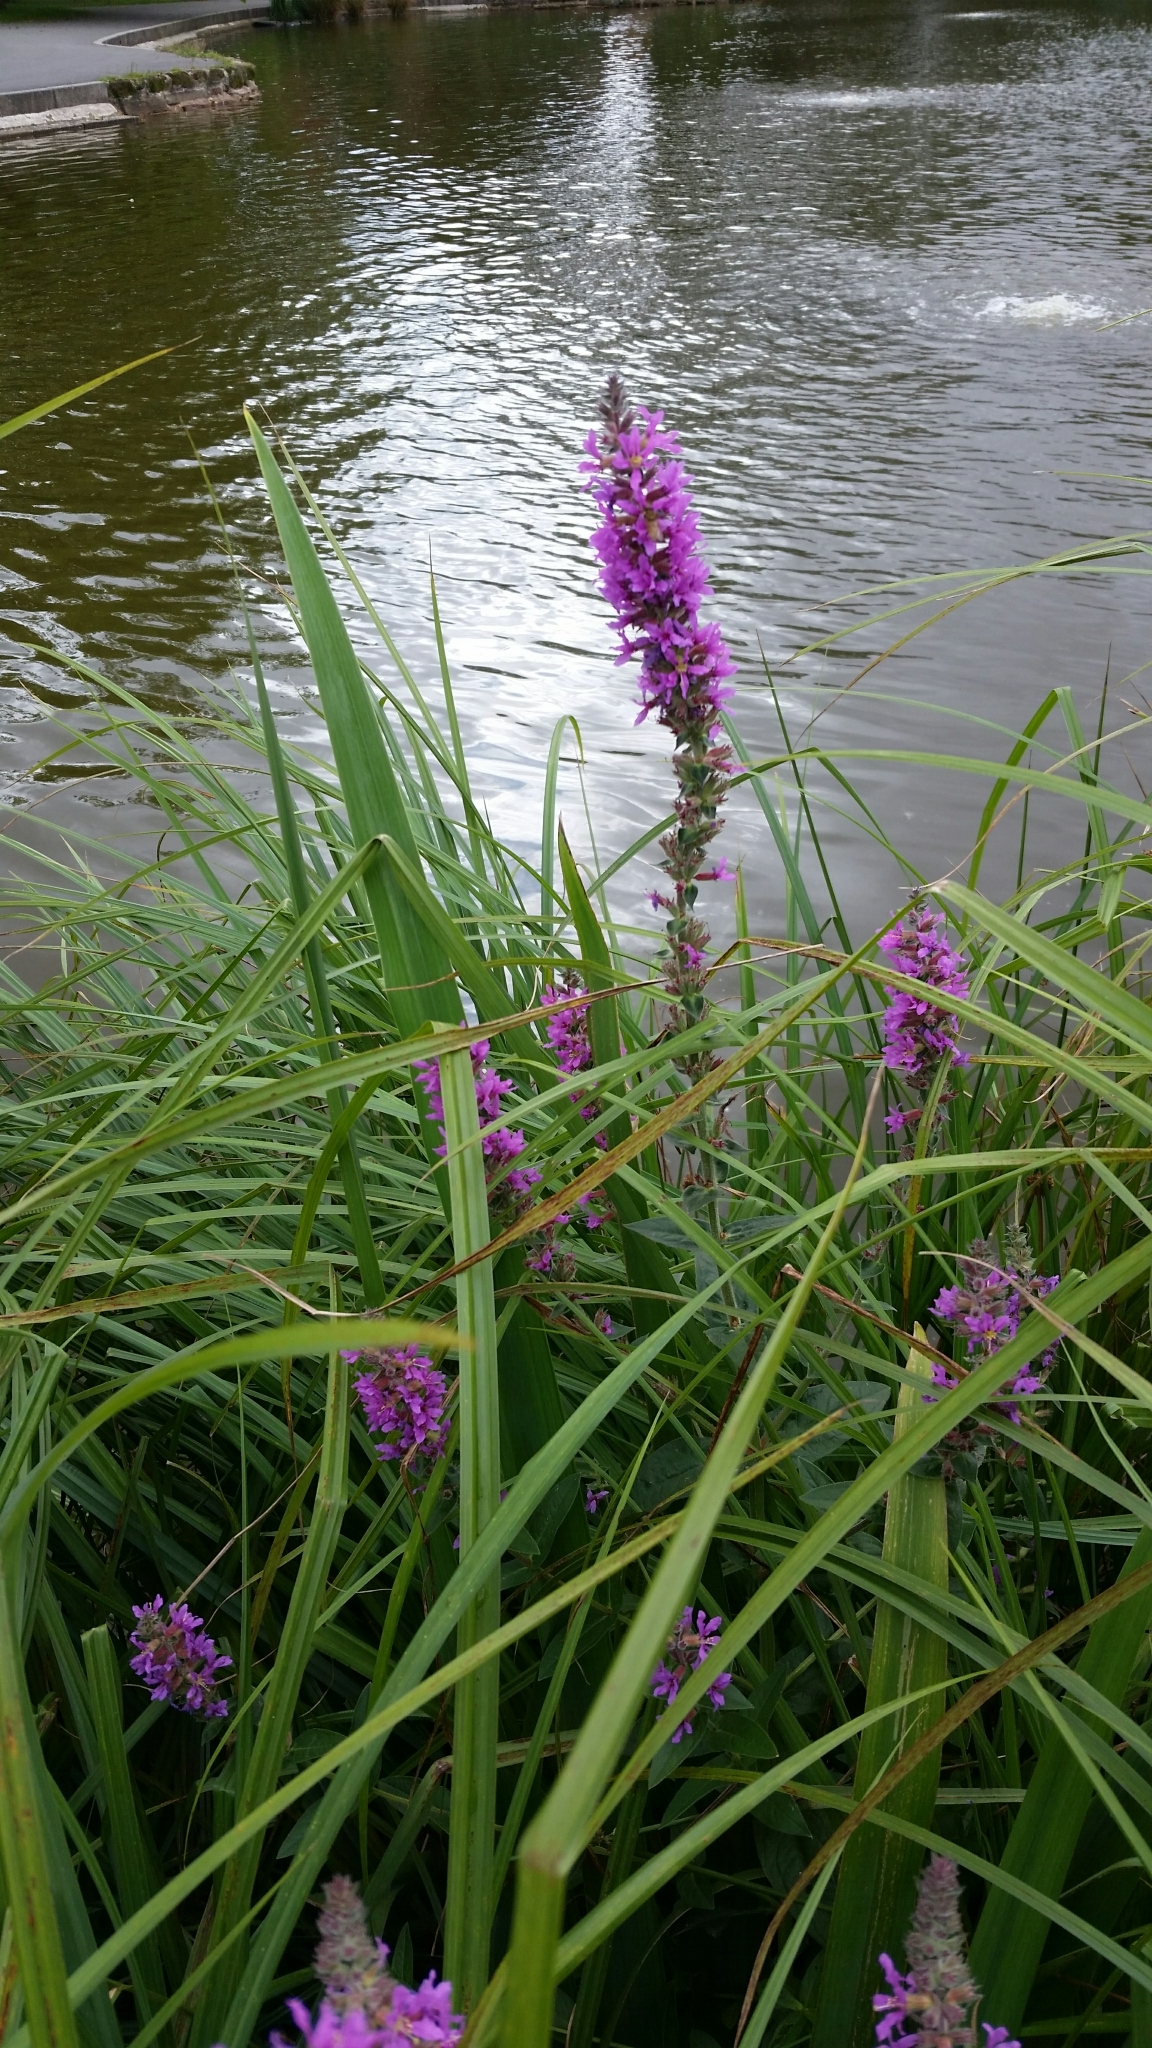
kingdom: Plantae
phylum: Tracheophyta
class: Magnoliopsida
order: Myrtales
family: Lythraceae
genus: Lythrum
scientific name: Lythrum salicaria
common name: Purple loosestrife
